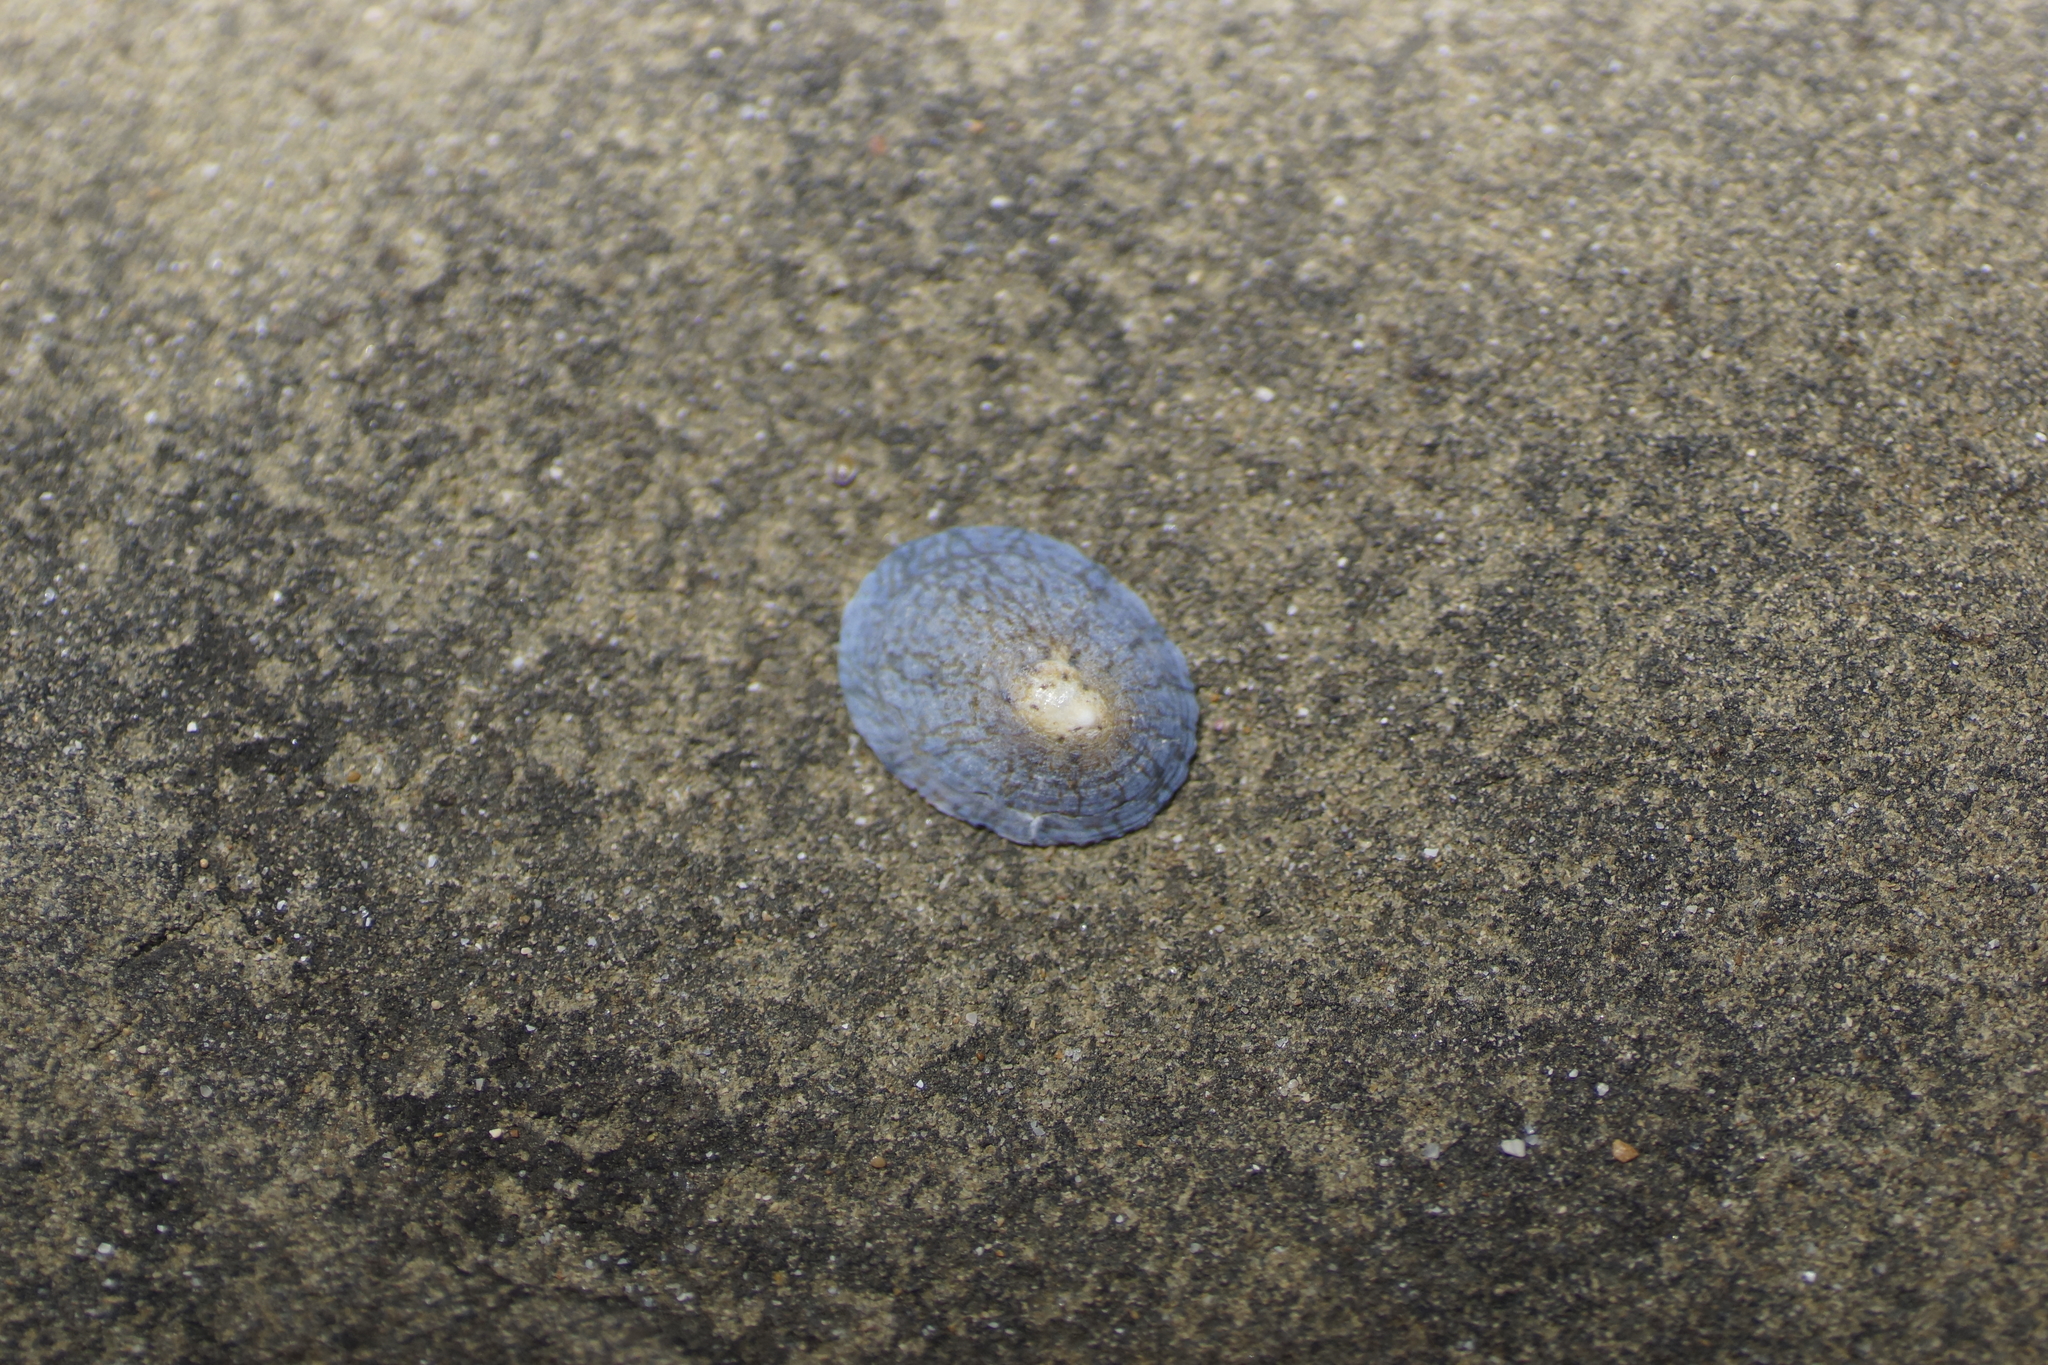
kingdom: Animalia
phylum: Mollusca
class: Gastropoda
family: Nacellidae
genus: Cellana
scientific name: Cellana tramoserica
